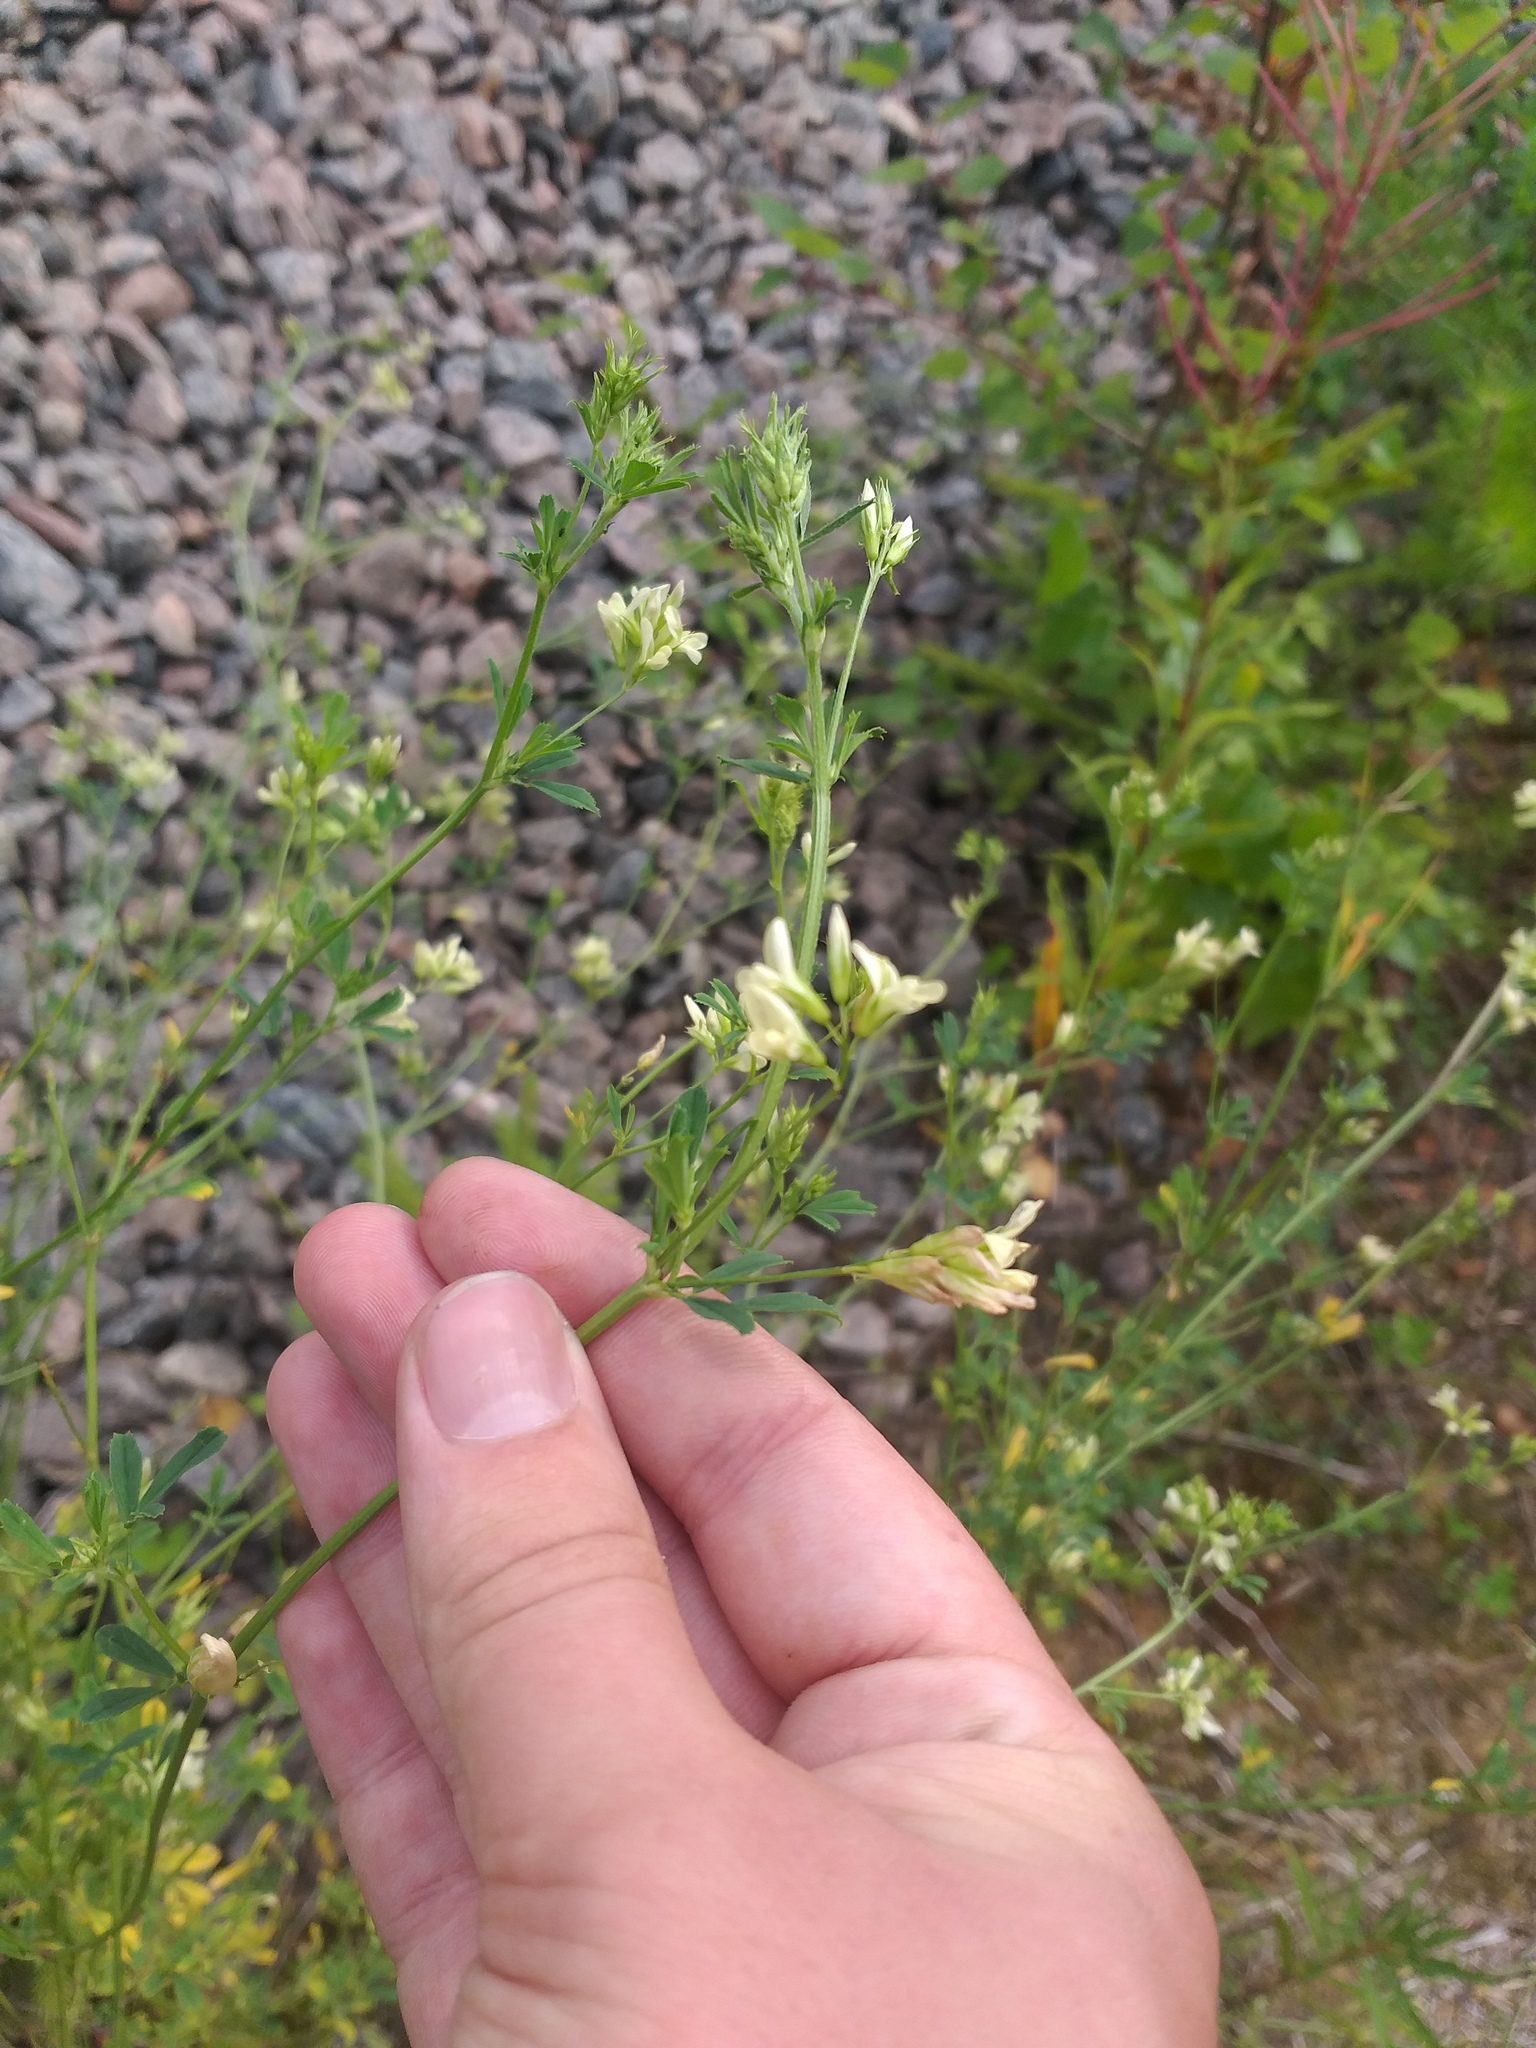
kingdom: Plantae
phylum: Tracheophyta
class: Magnoliopsida
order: Fabales
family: Fabaceae
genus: Medicago
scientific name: Medicago varia
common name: Sand lucerne
